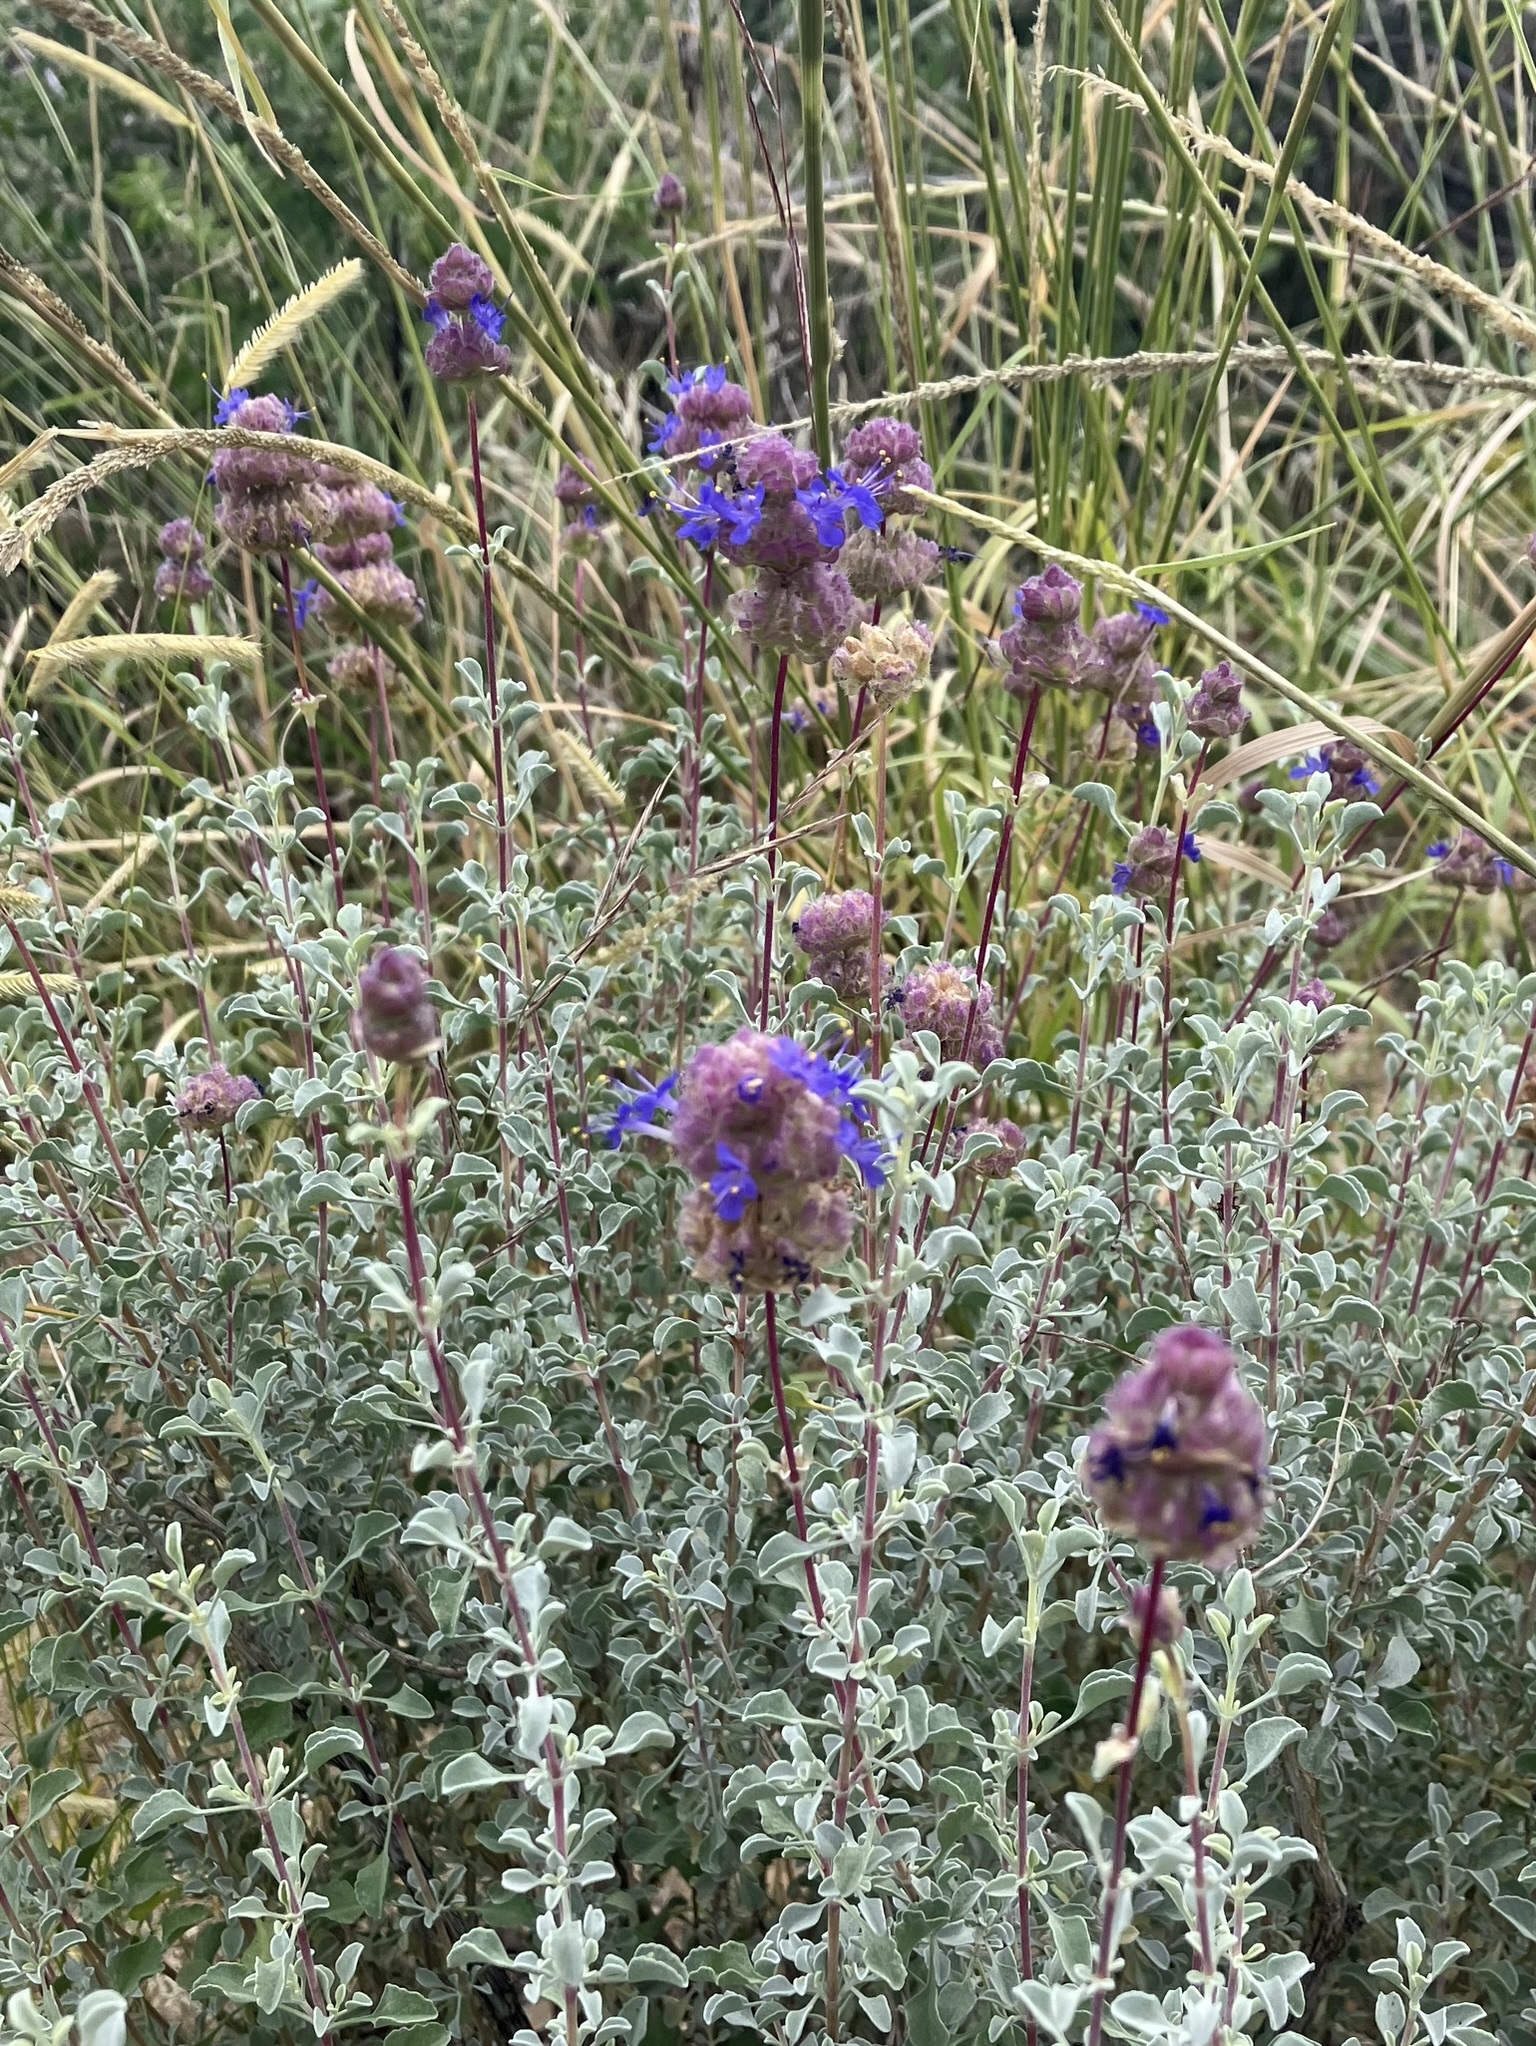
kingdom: Plantae
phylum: Tracheophyta
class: Magnoliopsida
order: Lamiales
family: Lamiaceae
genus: Salvia
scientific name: Salvia dorrii
